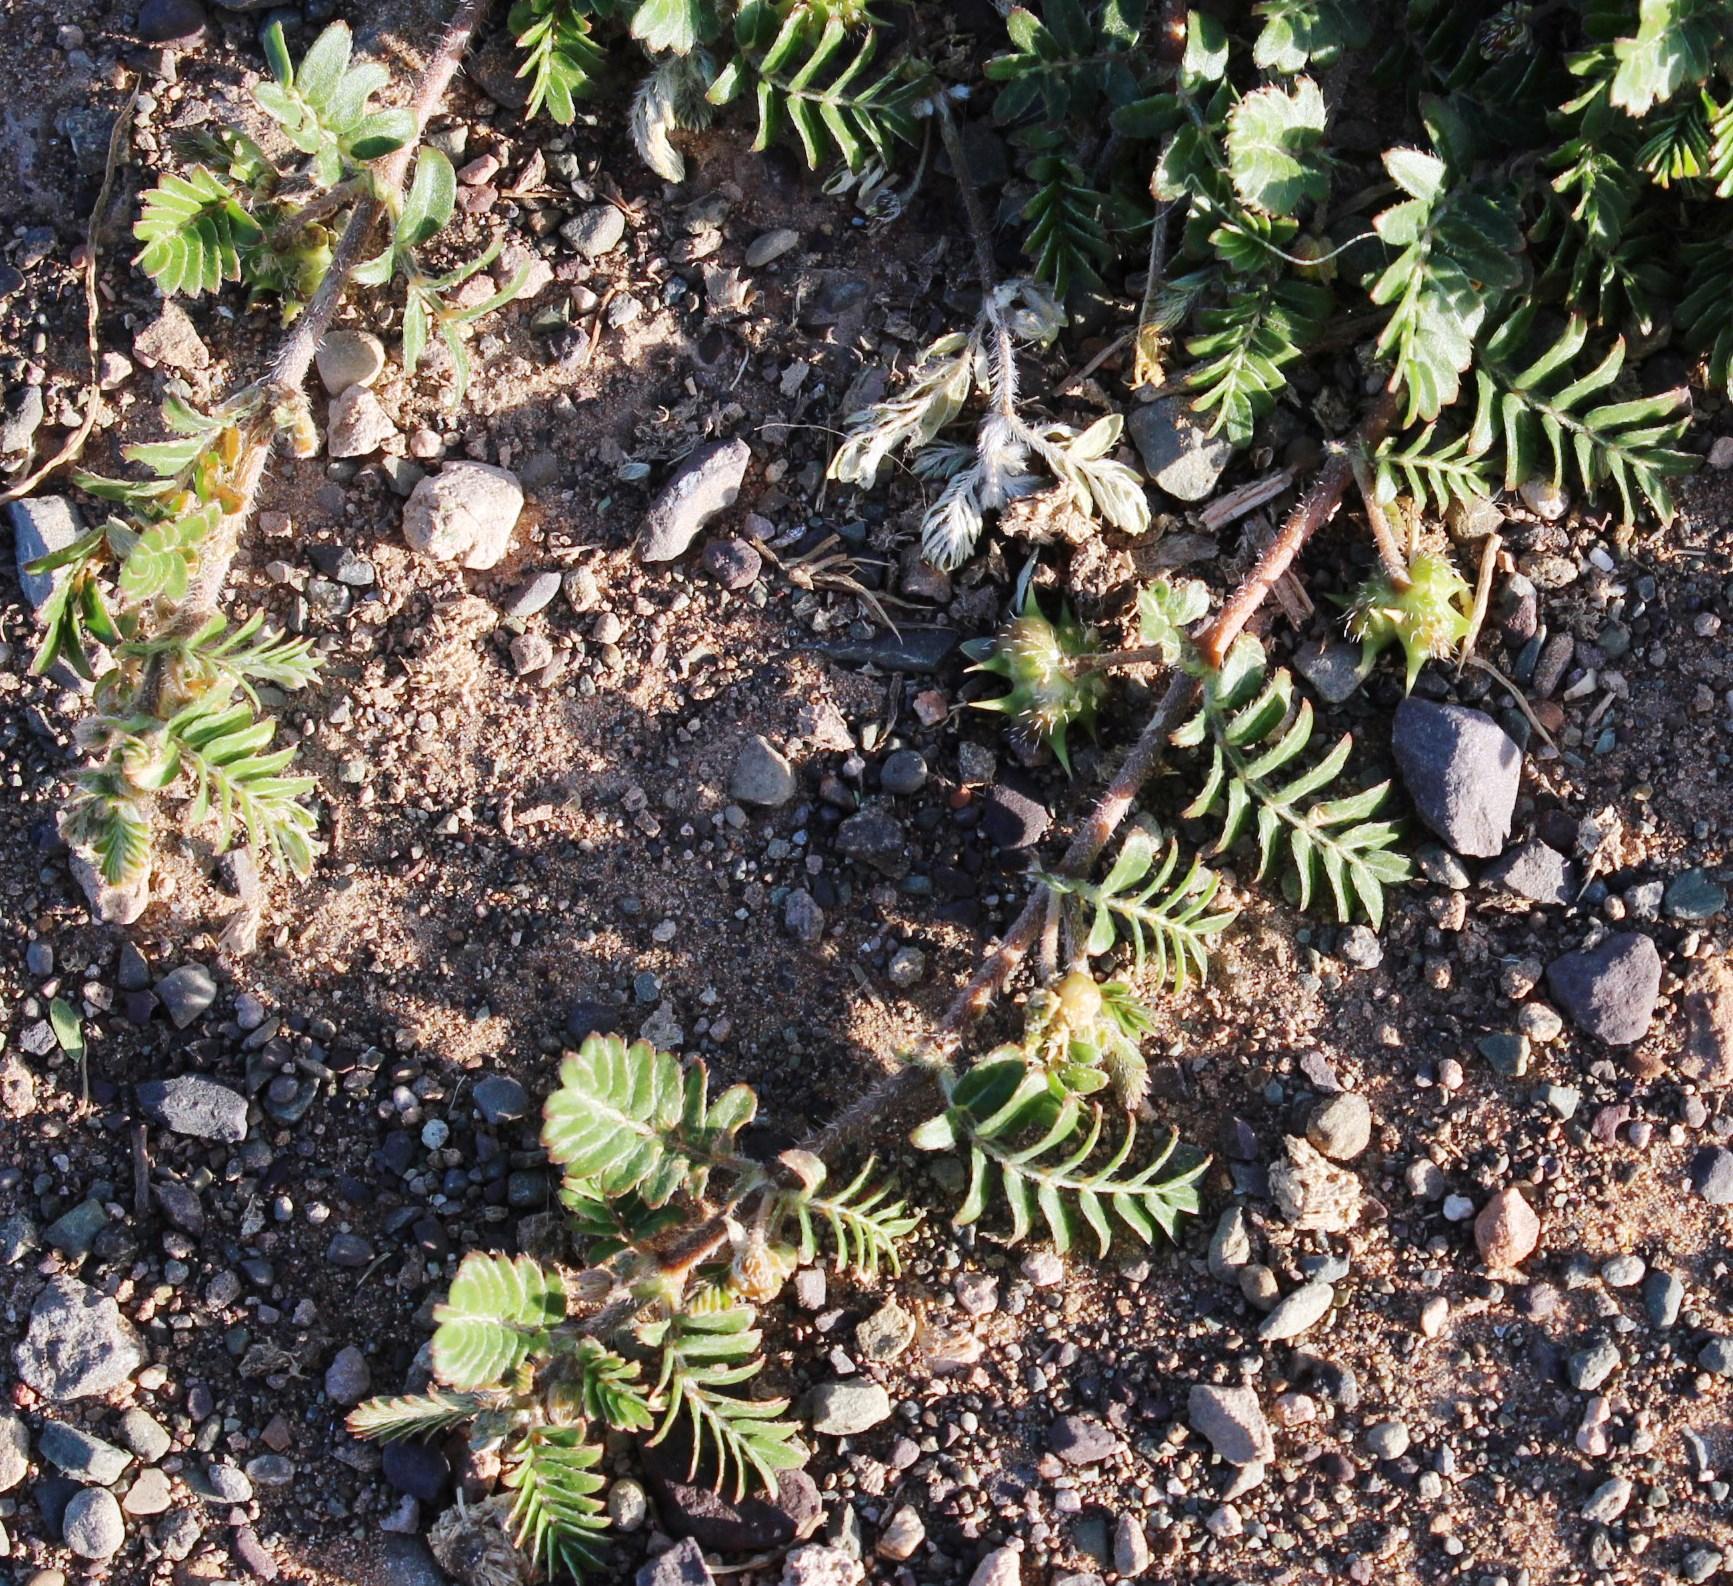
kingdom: Plantae
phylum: Tracheophyta
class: Magnoliopsida
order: Zygophyllales
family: Zygophyllaceae
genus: Tribulus
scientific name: Tribulus terrestris
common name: Puncturevine
